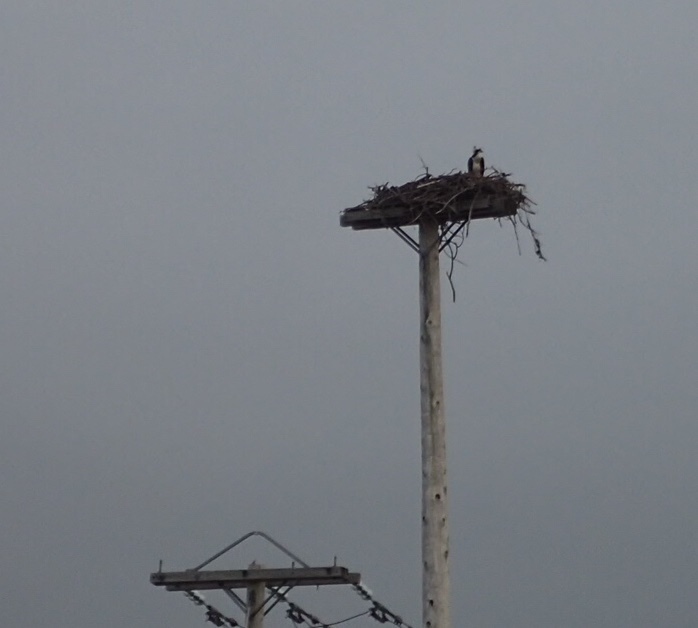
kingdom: Animalia
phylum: Chordata
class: Aves
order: Accipitriformes
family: Pandionidae
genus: Pandion
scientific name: Pandion haliaetus
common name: Osprey
